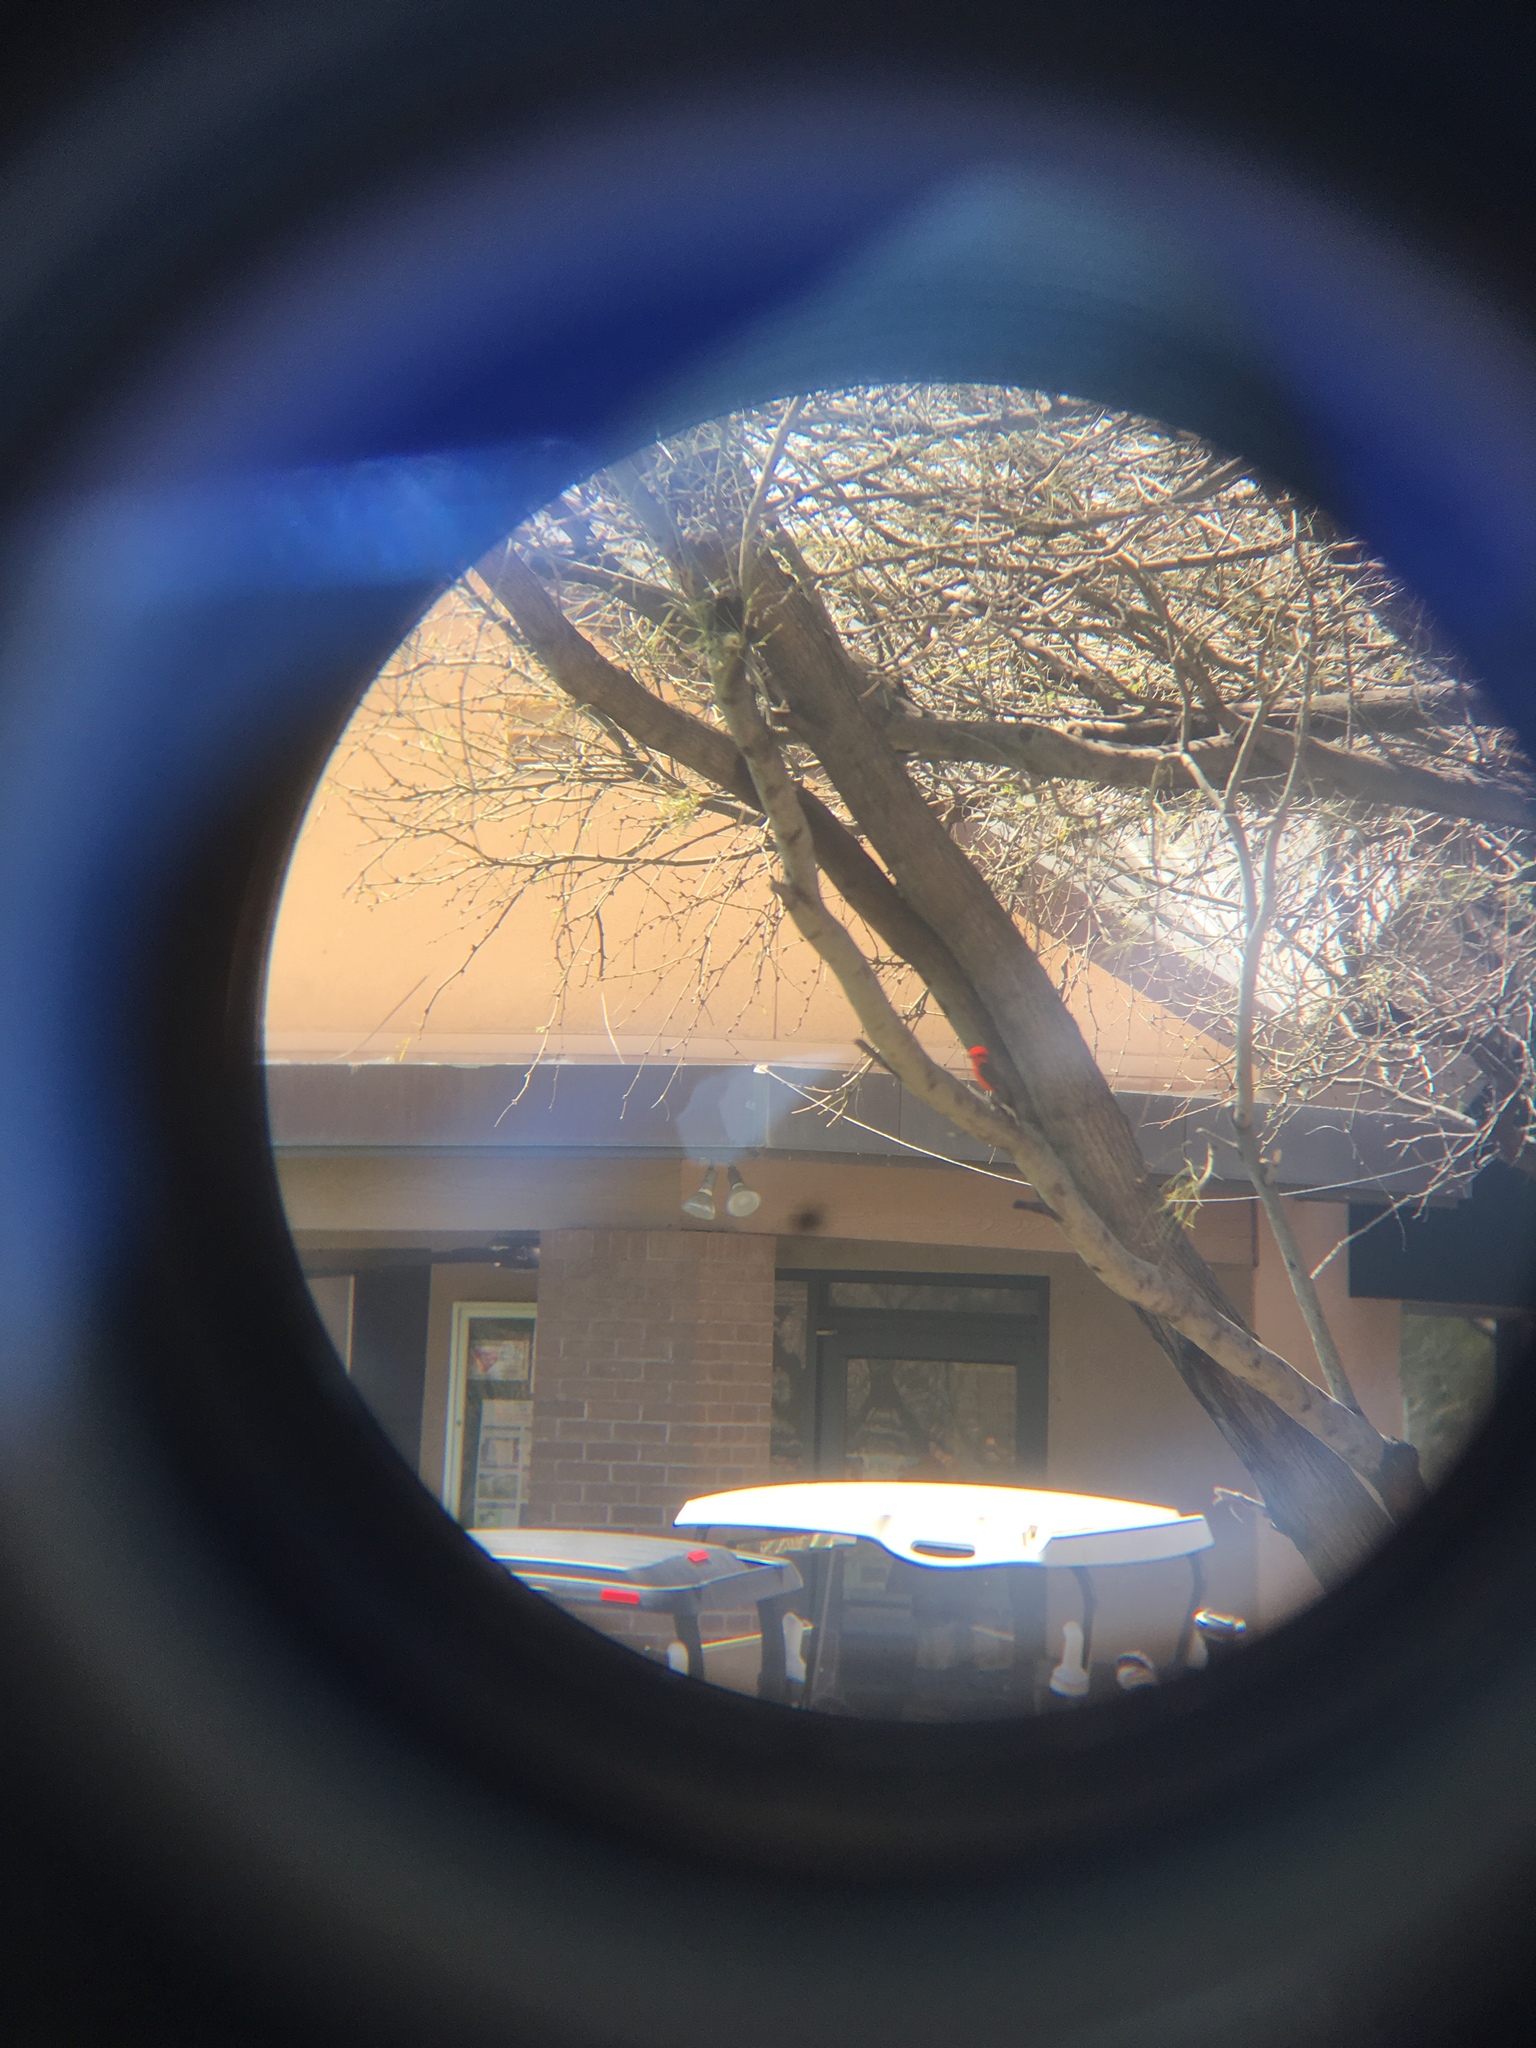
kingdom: Animalia
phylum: Chordata
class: Aves
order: Passeriformes
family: Tyrannidae
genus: Pyrocephalus
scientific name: Pyrocephalus rubinus
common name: Vermilion flycatcher
